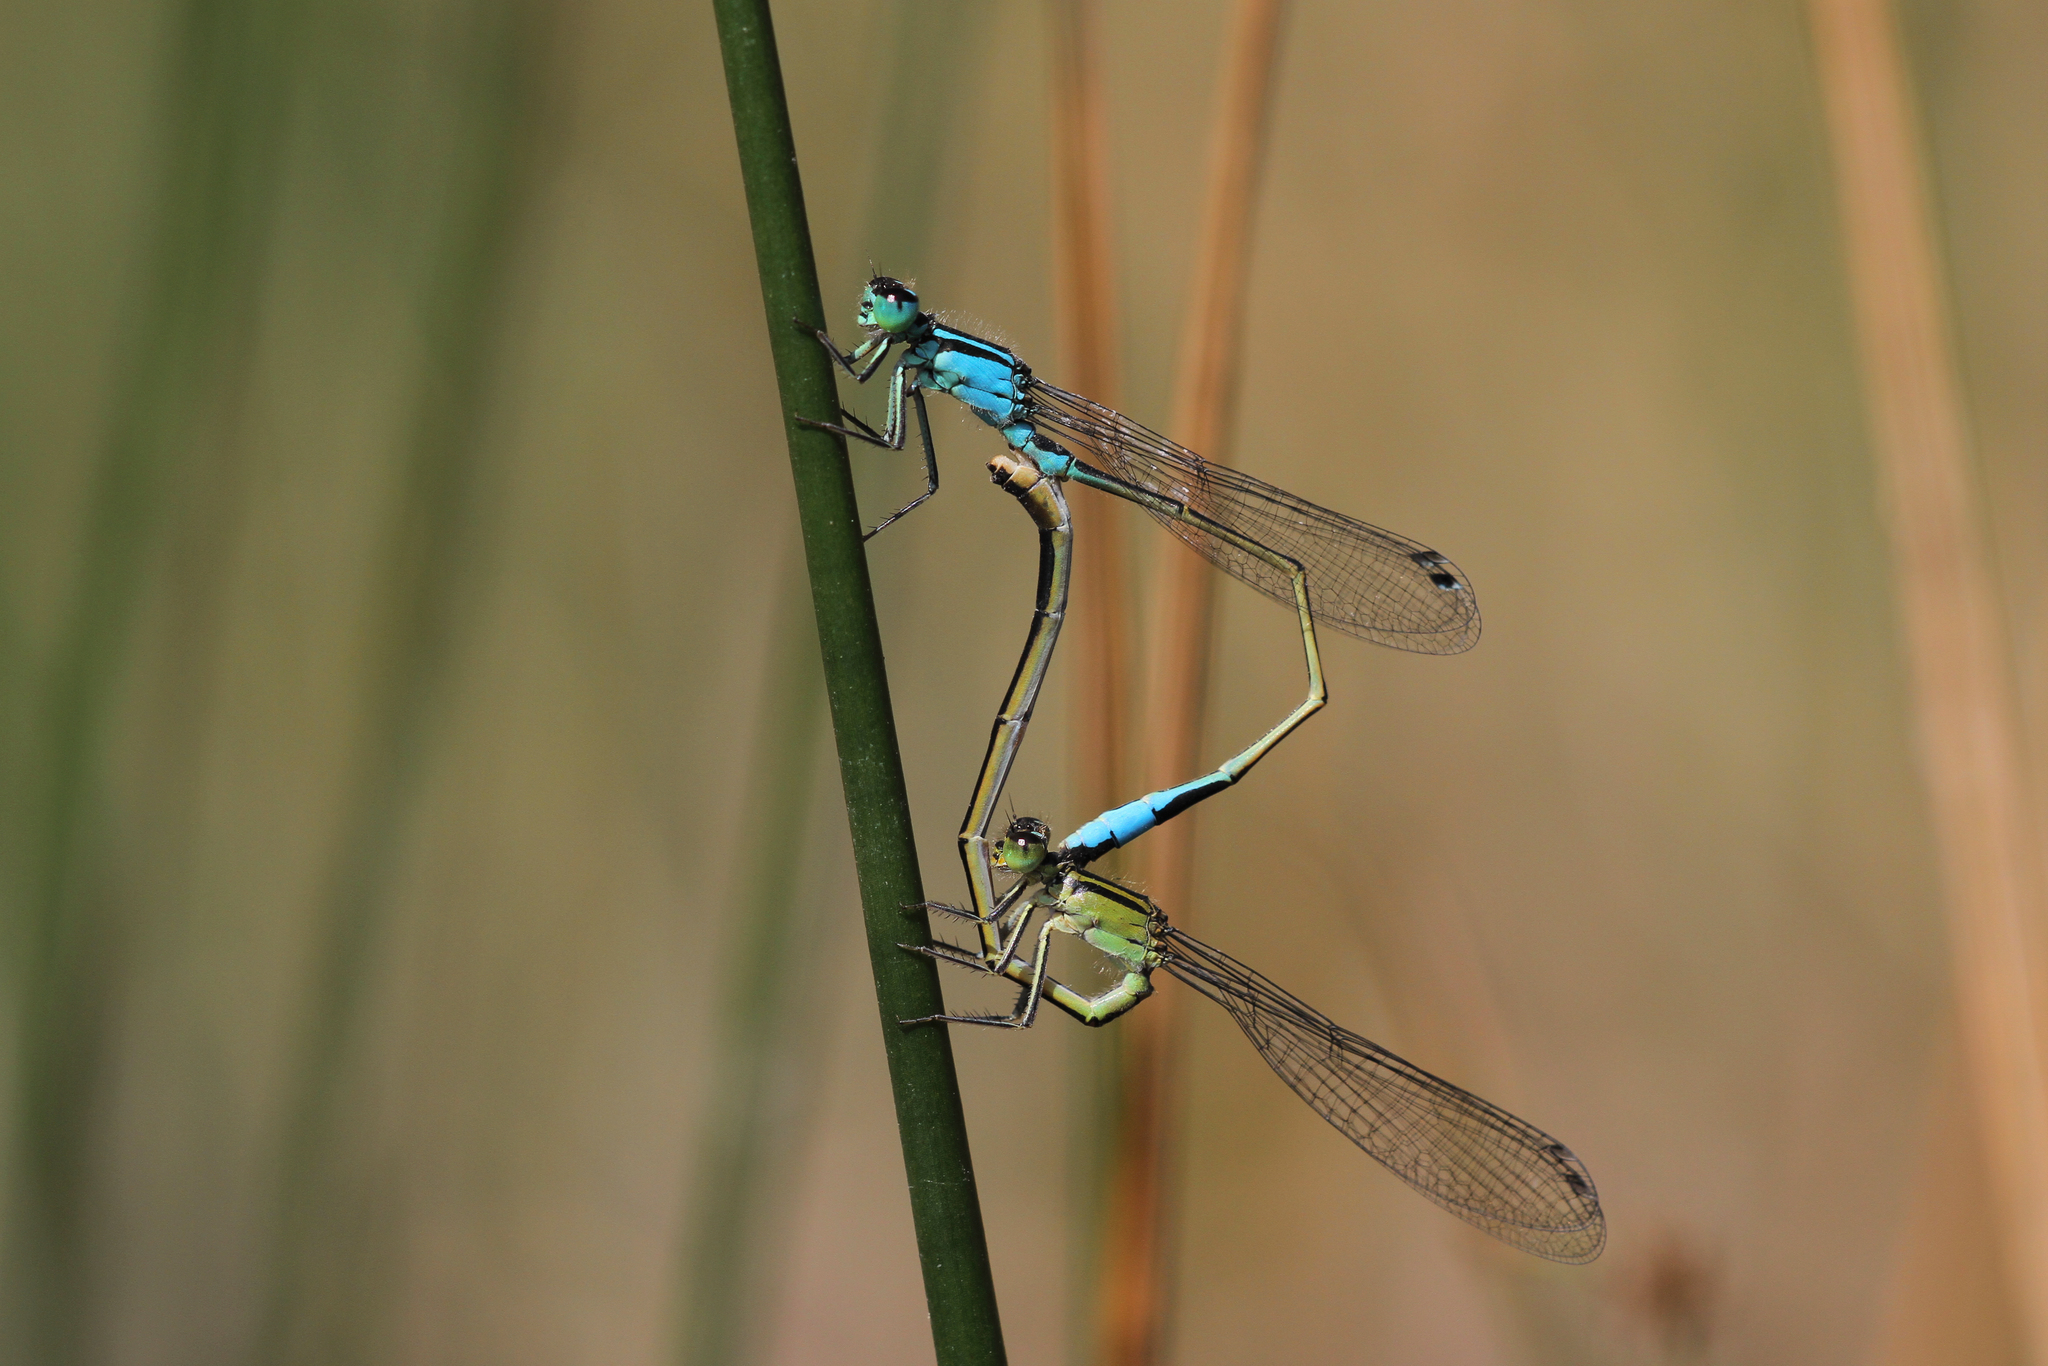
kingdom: Animalia
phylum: Arthropoda
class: Insecta
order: Odonata
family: Coenagrionidae
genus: Ischnura
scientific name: Ischnura elegans
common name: Blue-tailed damselfly
